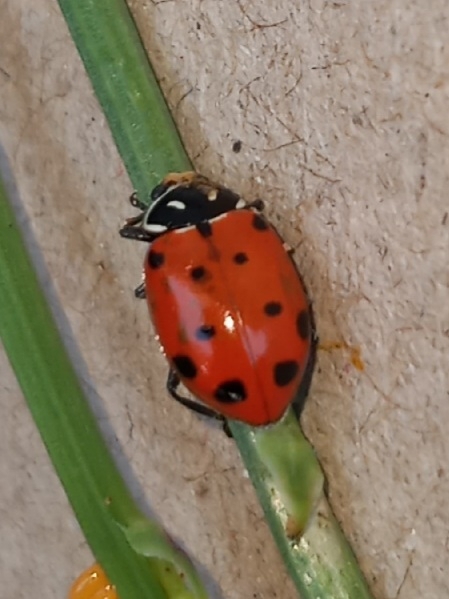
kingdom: Animalia
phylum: Arthropoda
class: Insecta
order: Coleoptera
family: Coccinellidae
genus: Hippodamia
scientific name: Hippodamia convergens
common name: Convergent lady beetle
